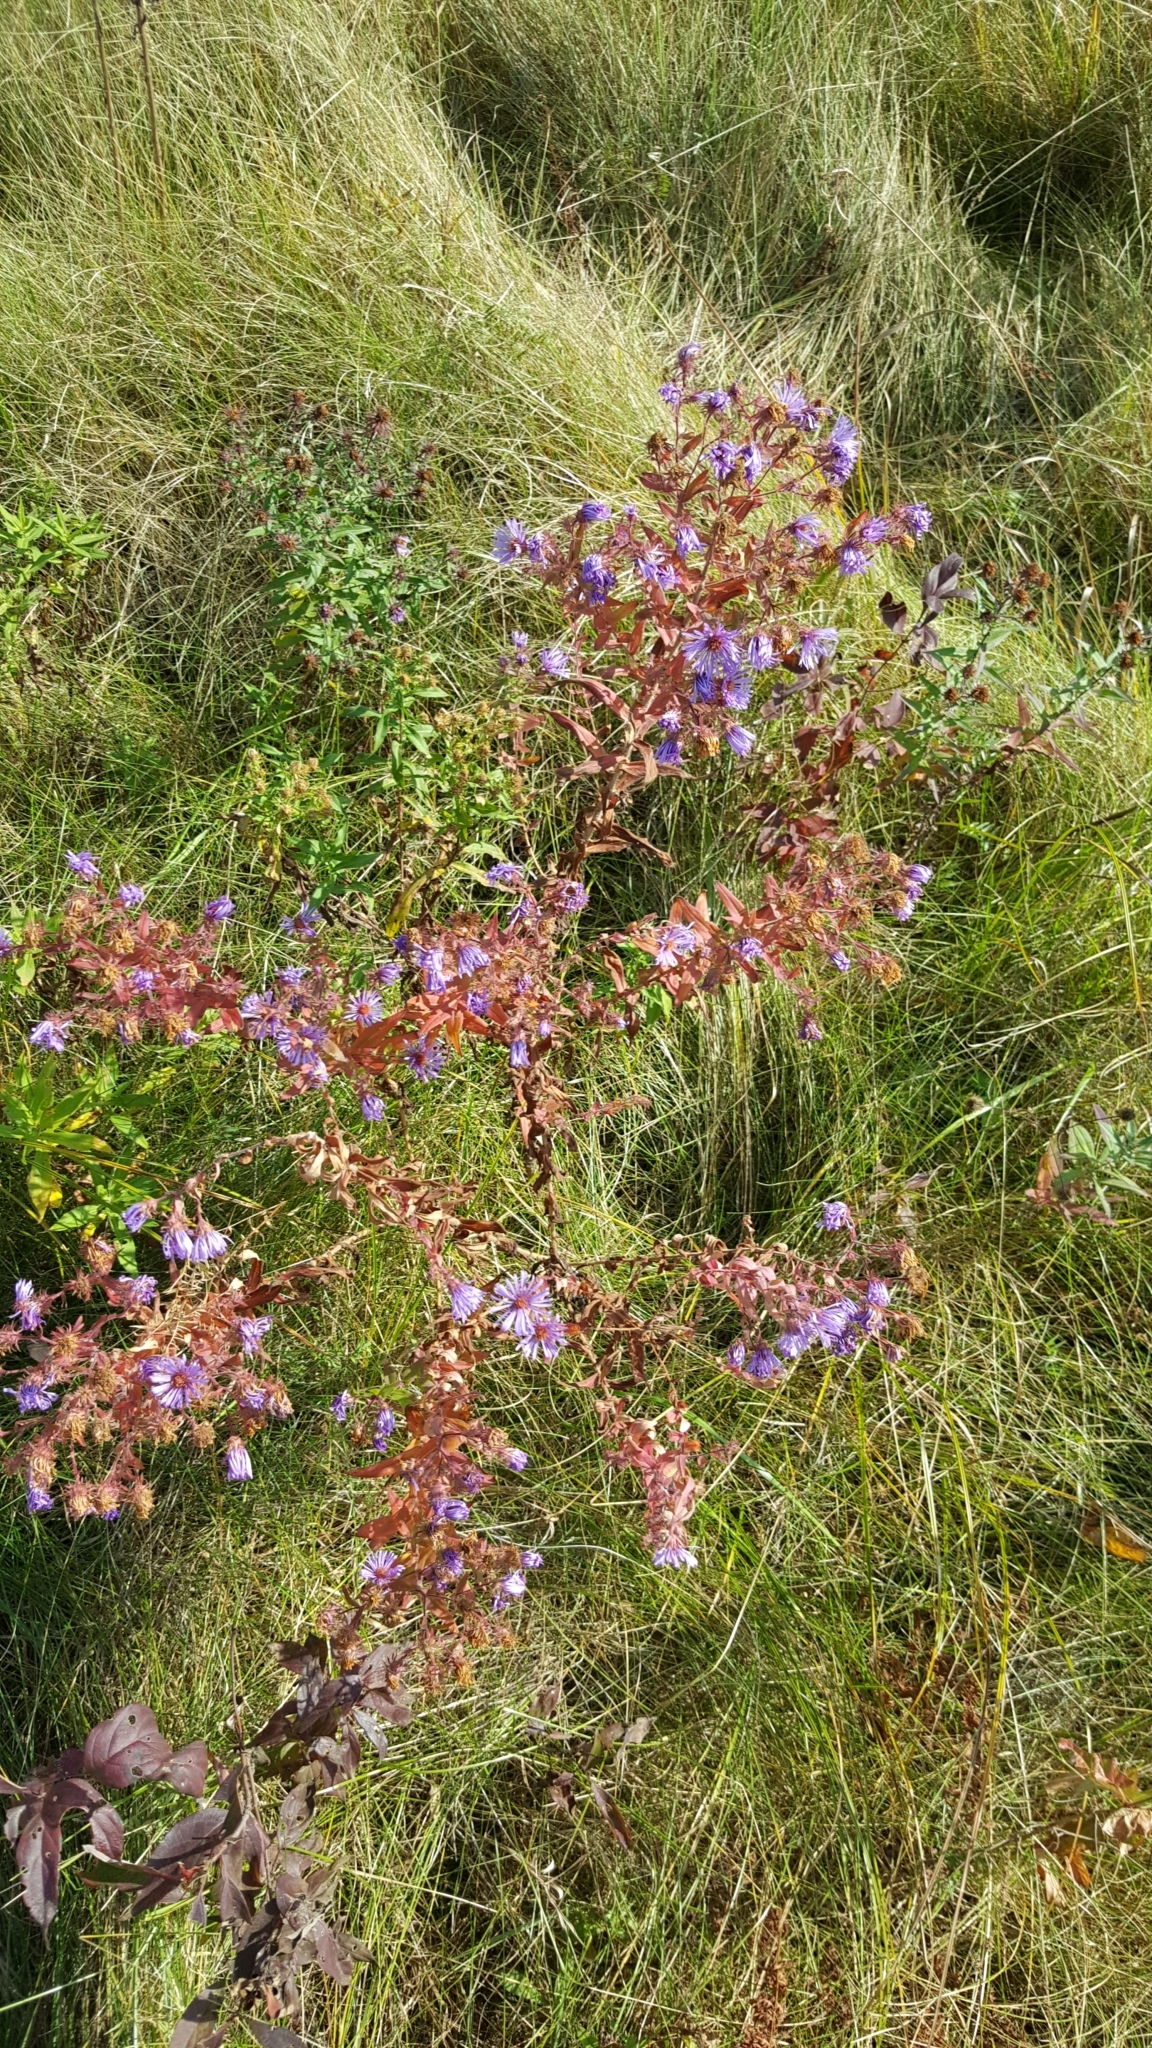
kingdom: Plantae
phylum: Tracheophyta
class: Magnoliopsida
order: Asterales
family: Asteraceae
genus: Symphyotrichum
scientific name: Symphyotrichum novae-angliae
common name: Michaelmas daisy
